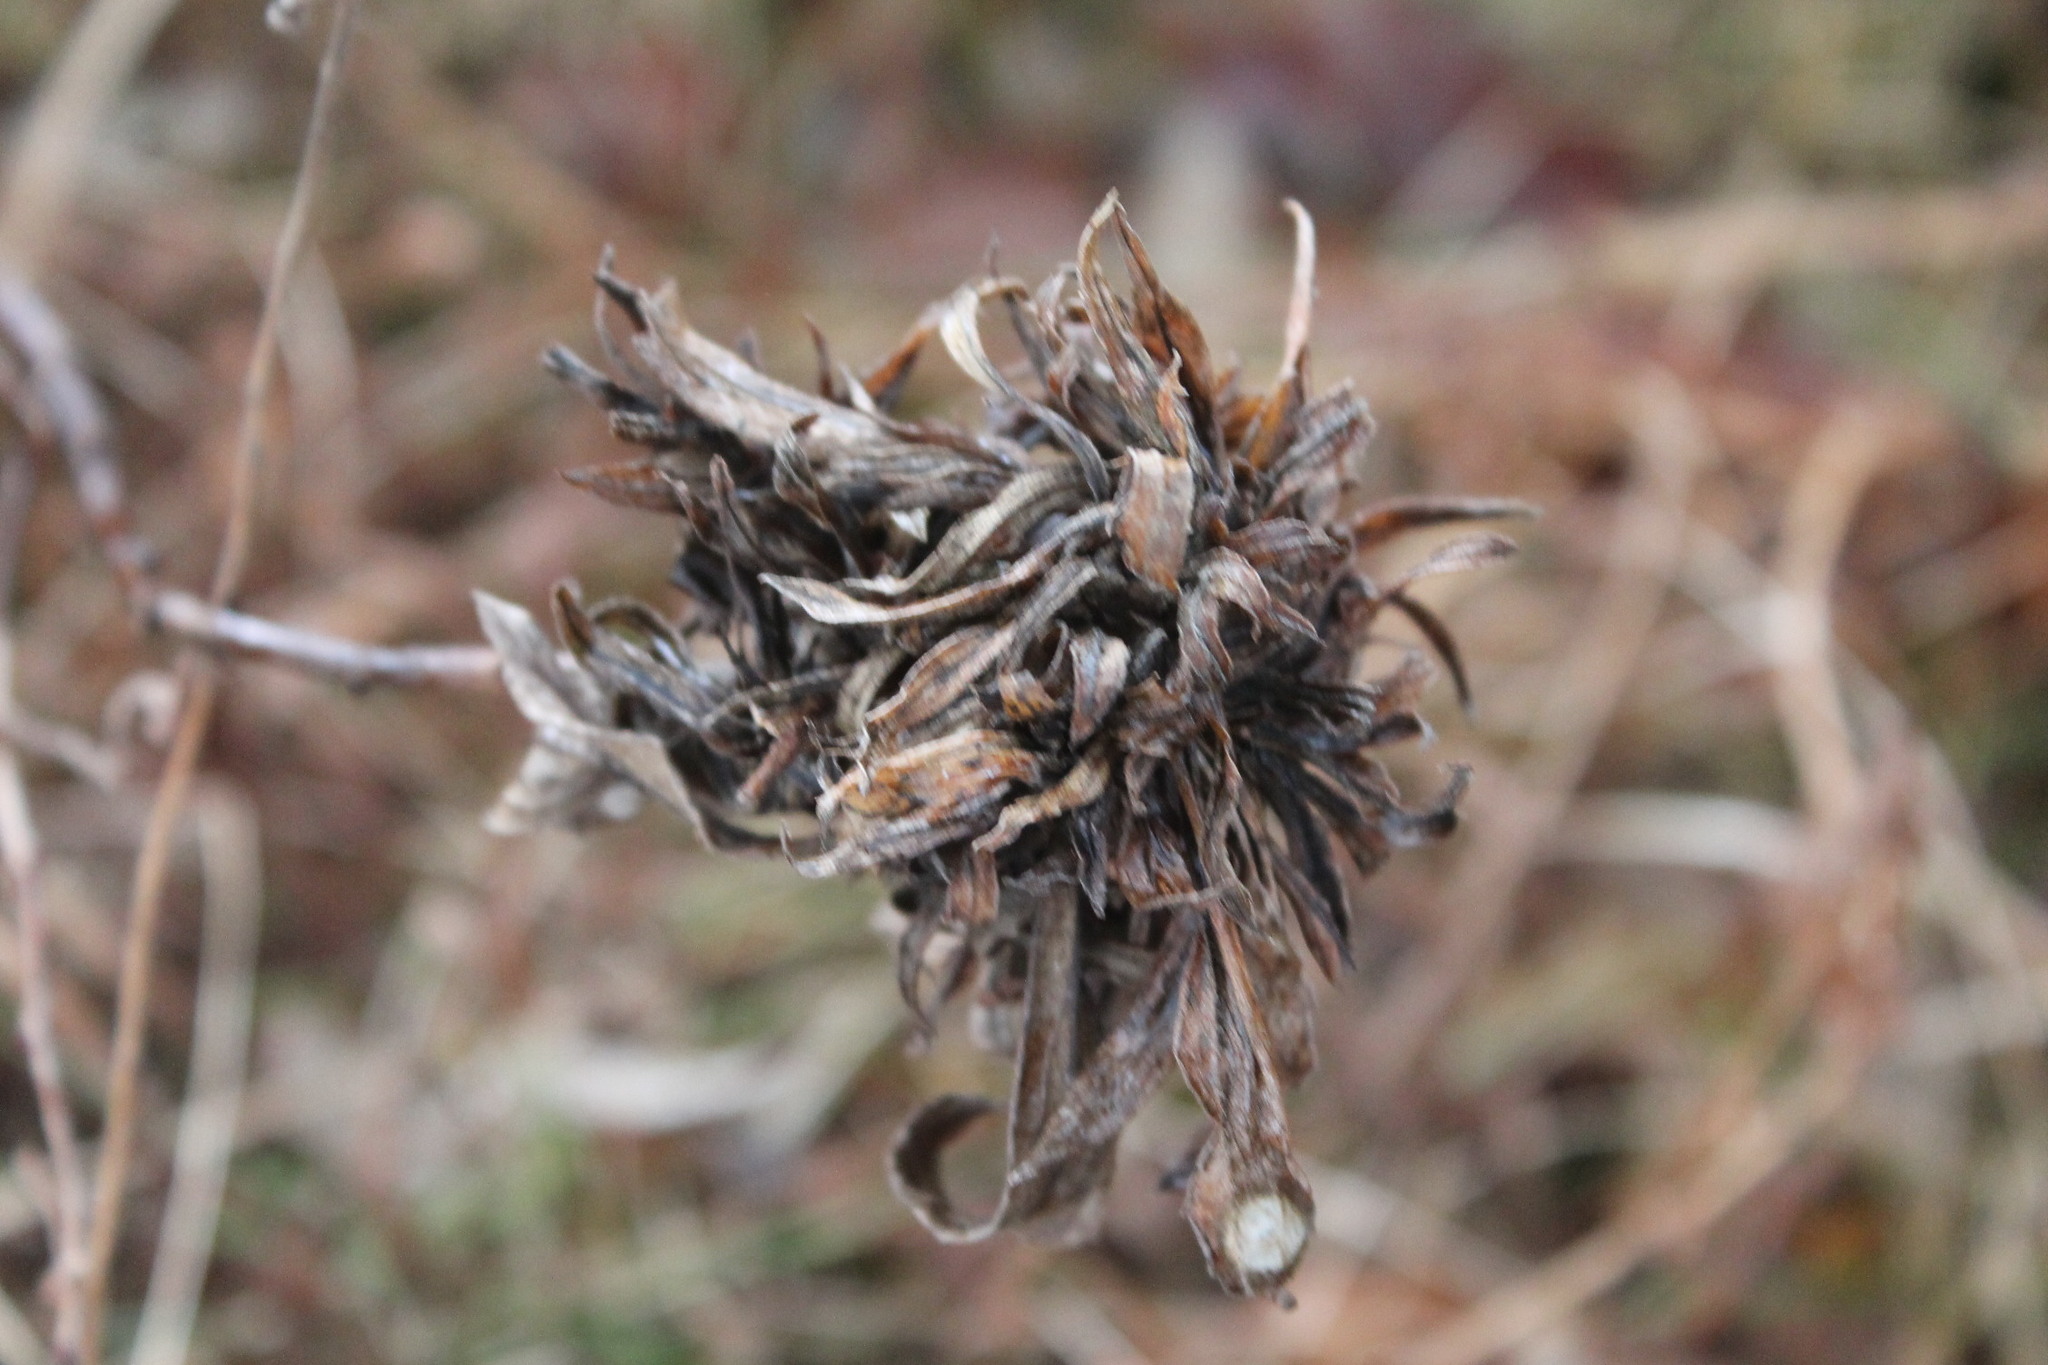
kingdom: Animalia
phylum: Arthropoda
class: Insecta
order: Diptera
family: Cecidomyiidae
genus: Rhopalomyia
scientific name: Rhopalomyia solidaginis
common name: Goldenrod bunch gall midge
